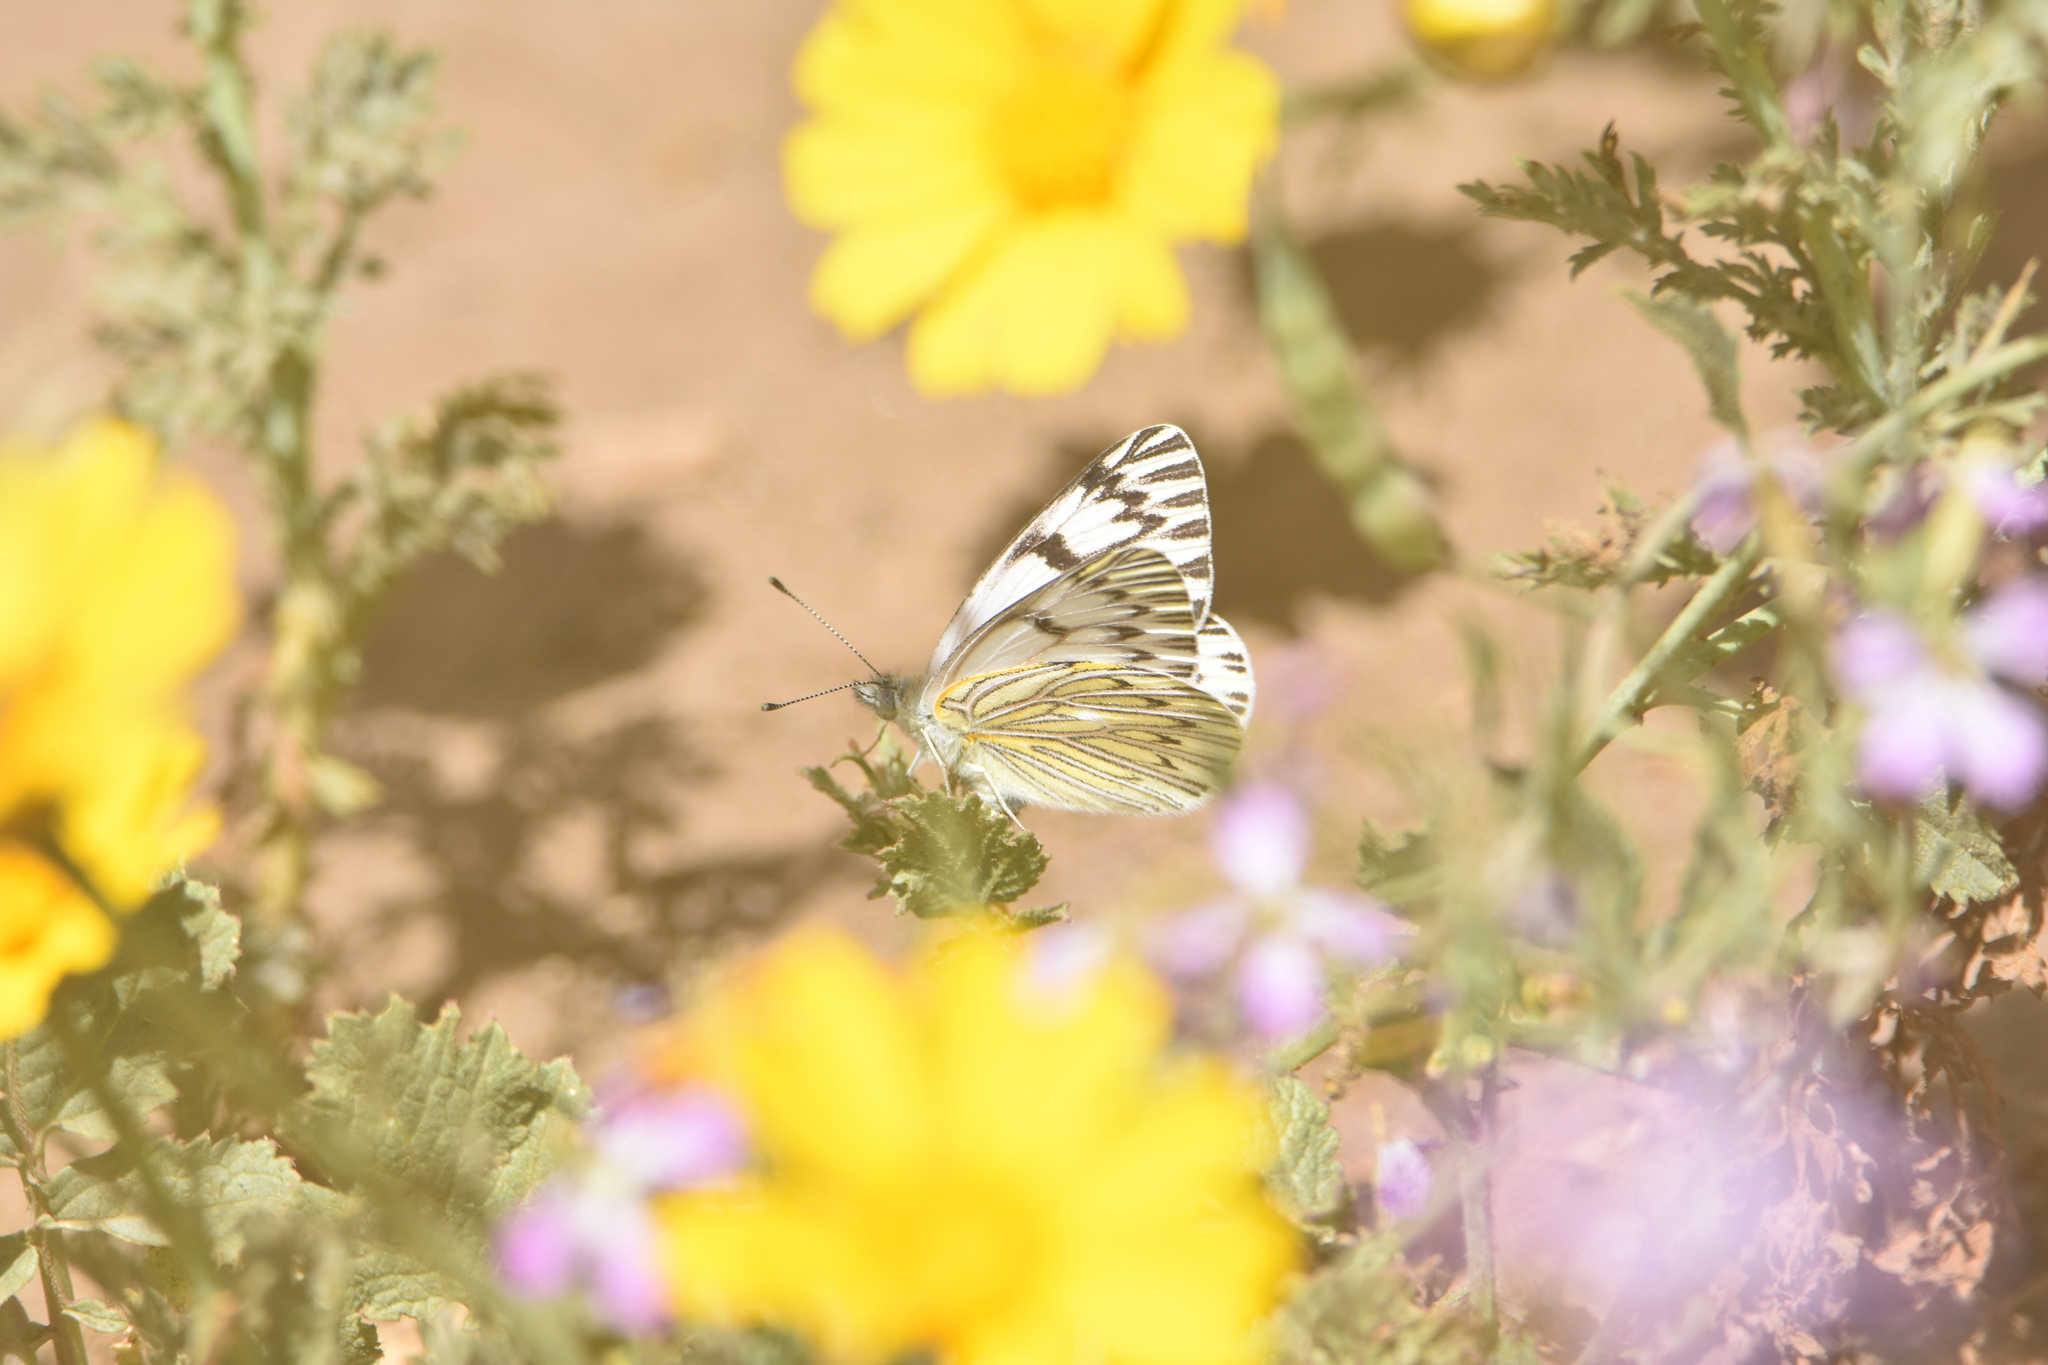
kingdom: Animalia
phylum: Arthropoda
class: Insecta
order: Lepidoptera
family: Pieridae
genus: Tatochila
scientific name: Tatochila mercedis
